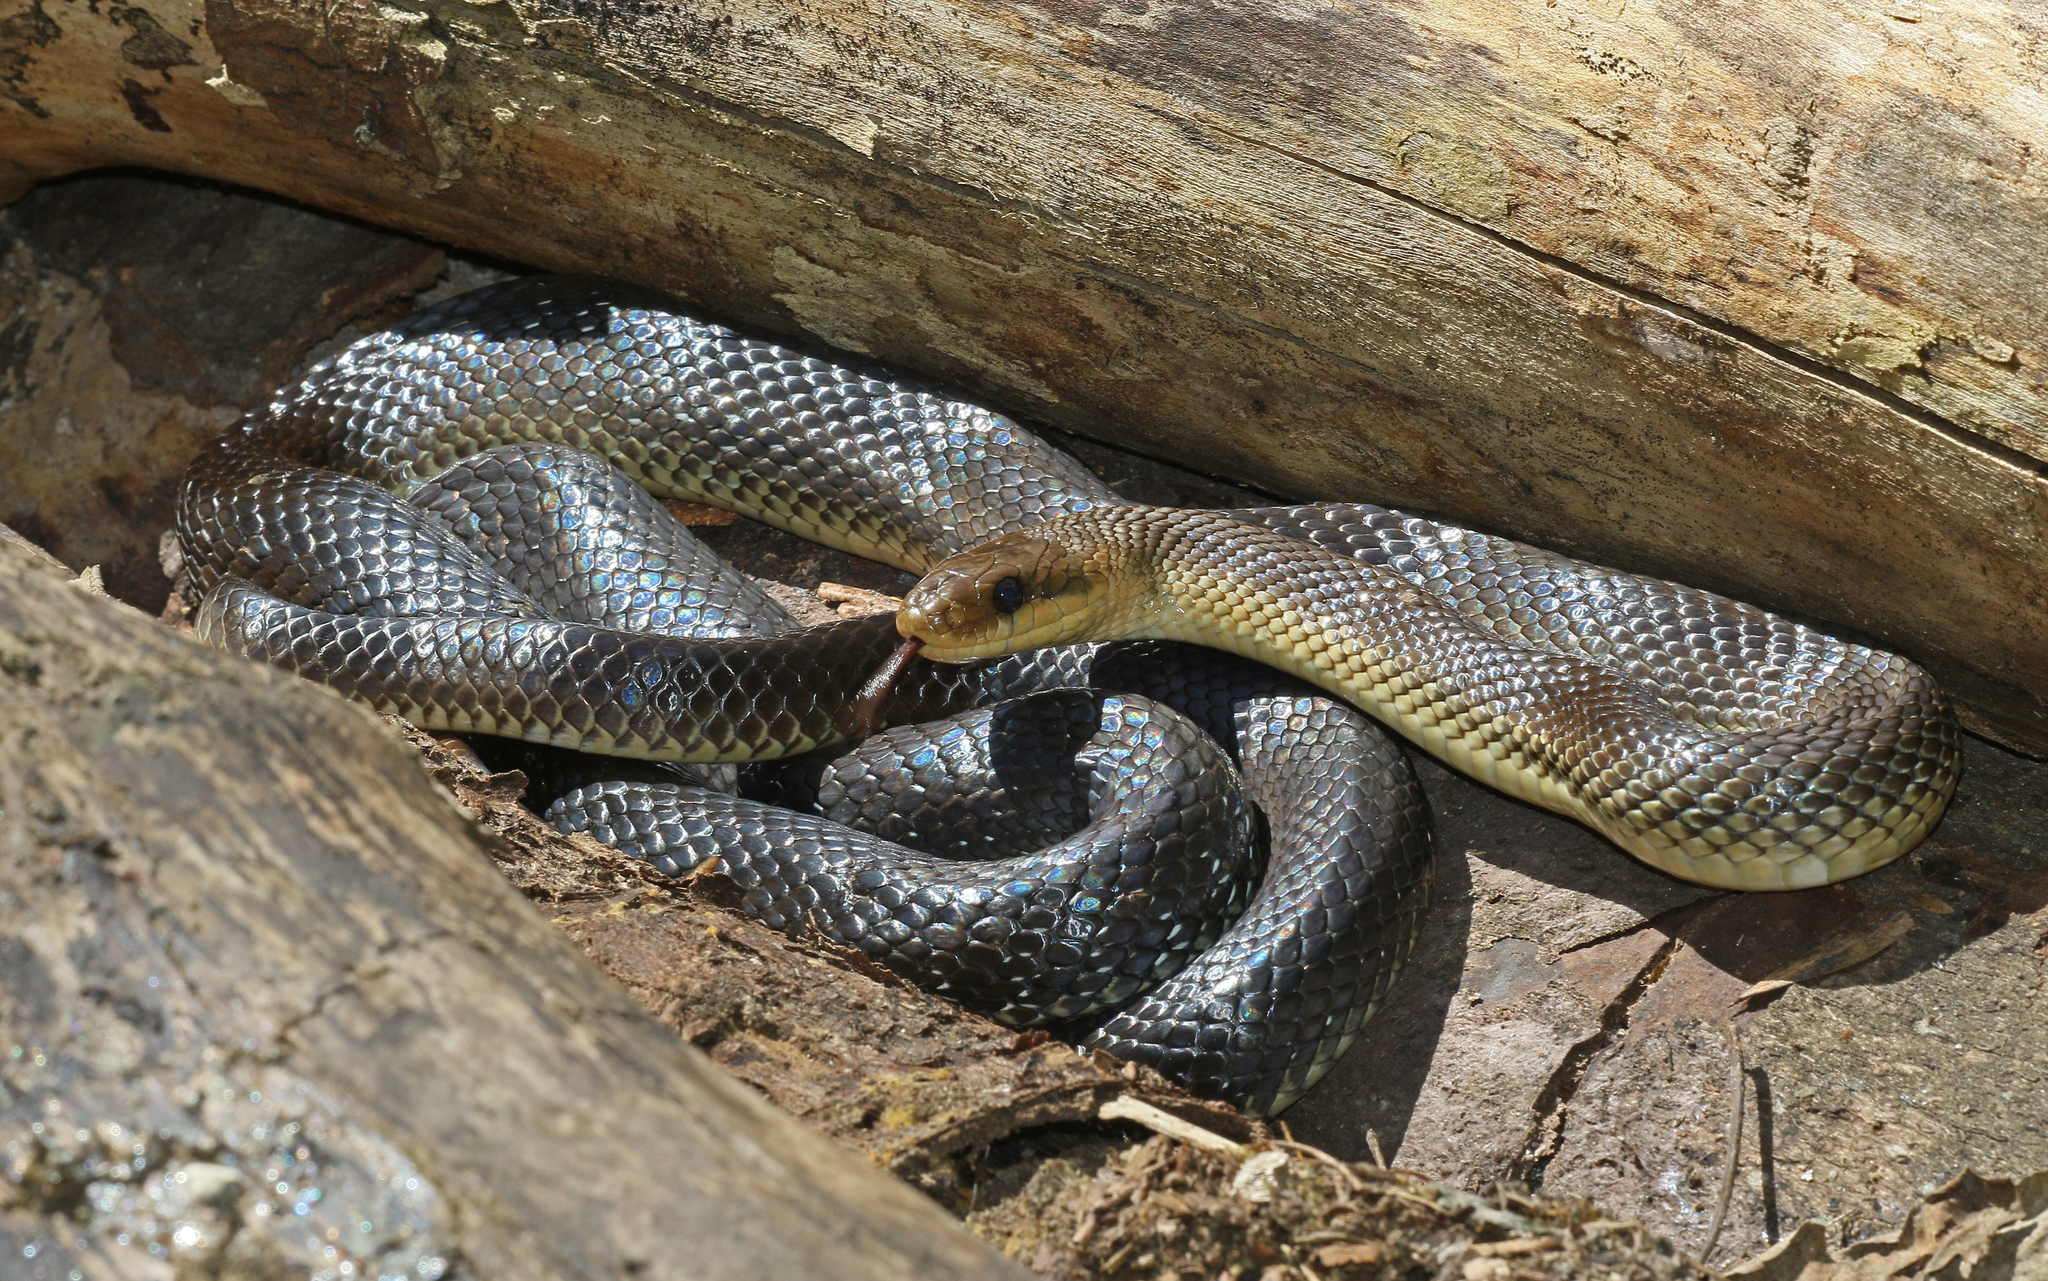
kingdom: Animalia
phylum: Chordata
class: Squamata
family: Colubridae
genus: Zamenis
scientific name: Zamenis longissimus
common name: Aesculapean snake
